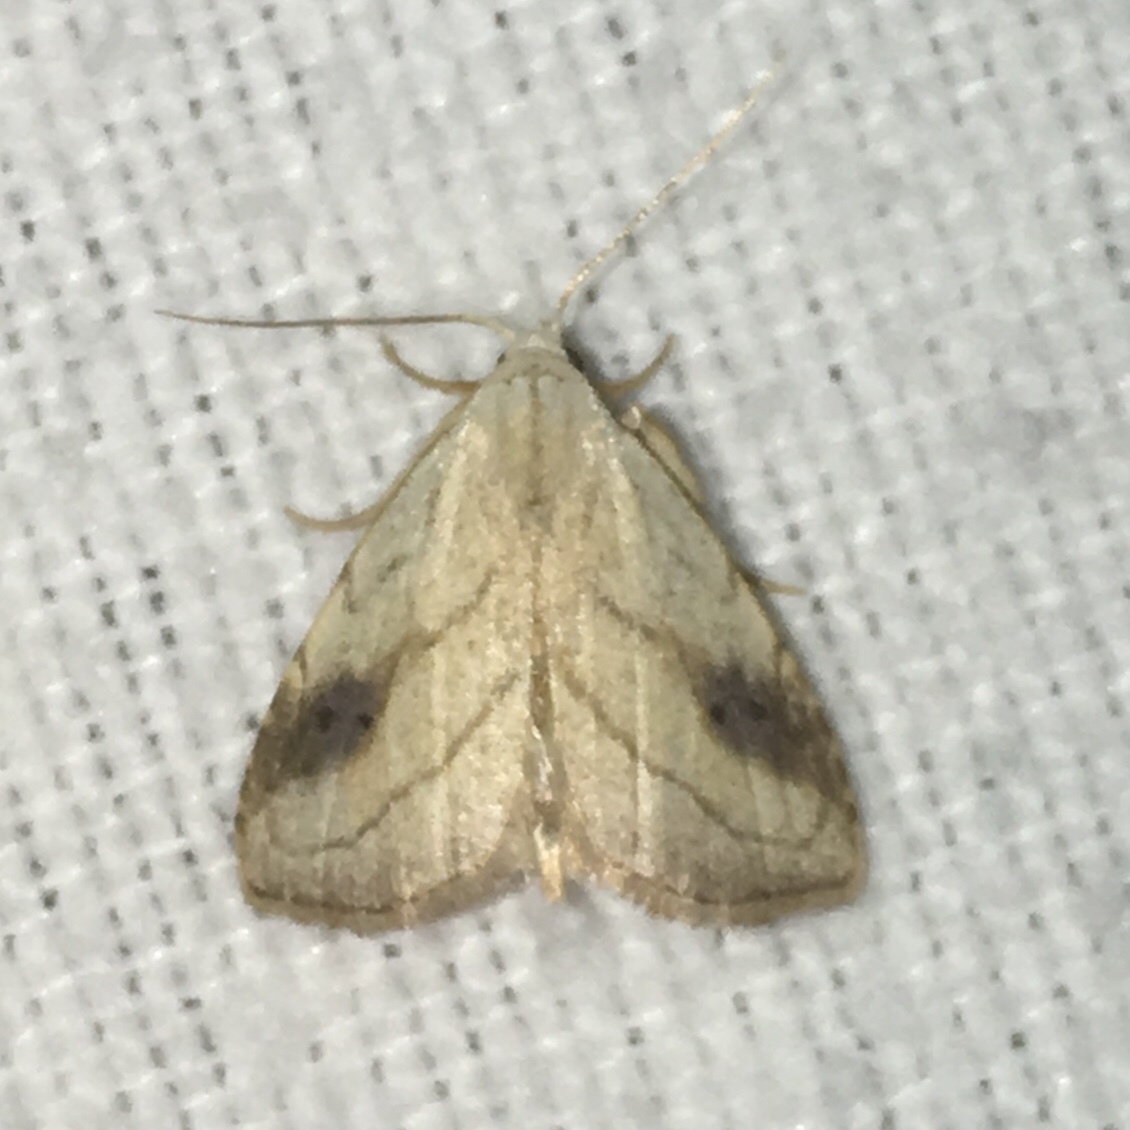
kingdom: Animalia
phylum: Arthropoda
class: Insecta
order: Lepidoptera
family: Erebidae
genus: Rivula
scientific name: Rivula propinqualis
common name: Spotted grass moth
